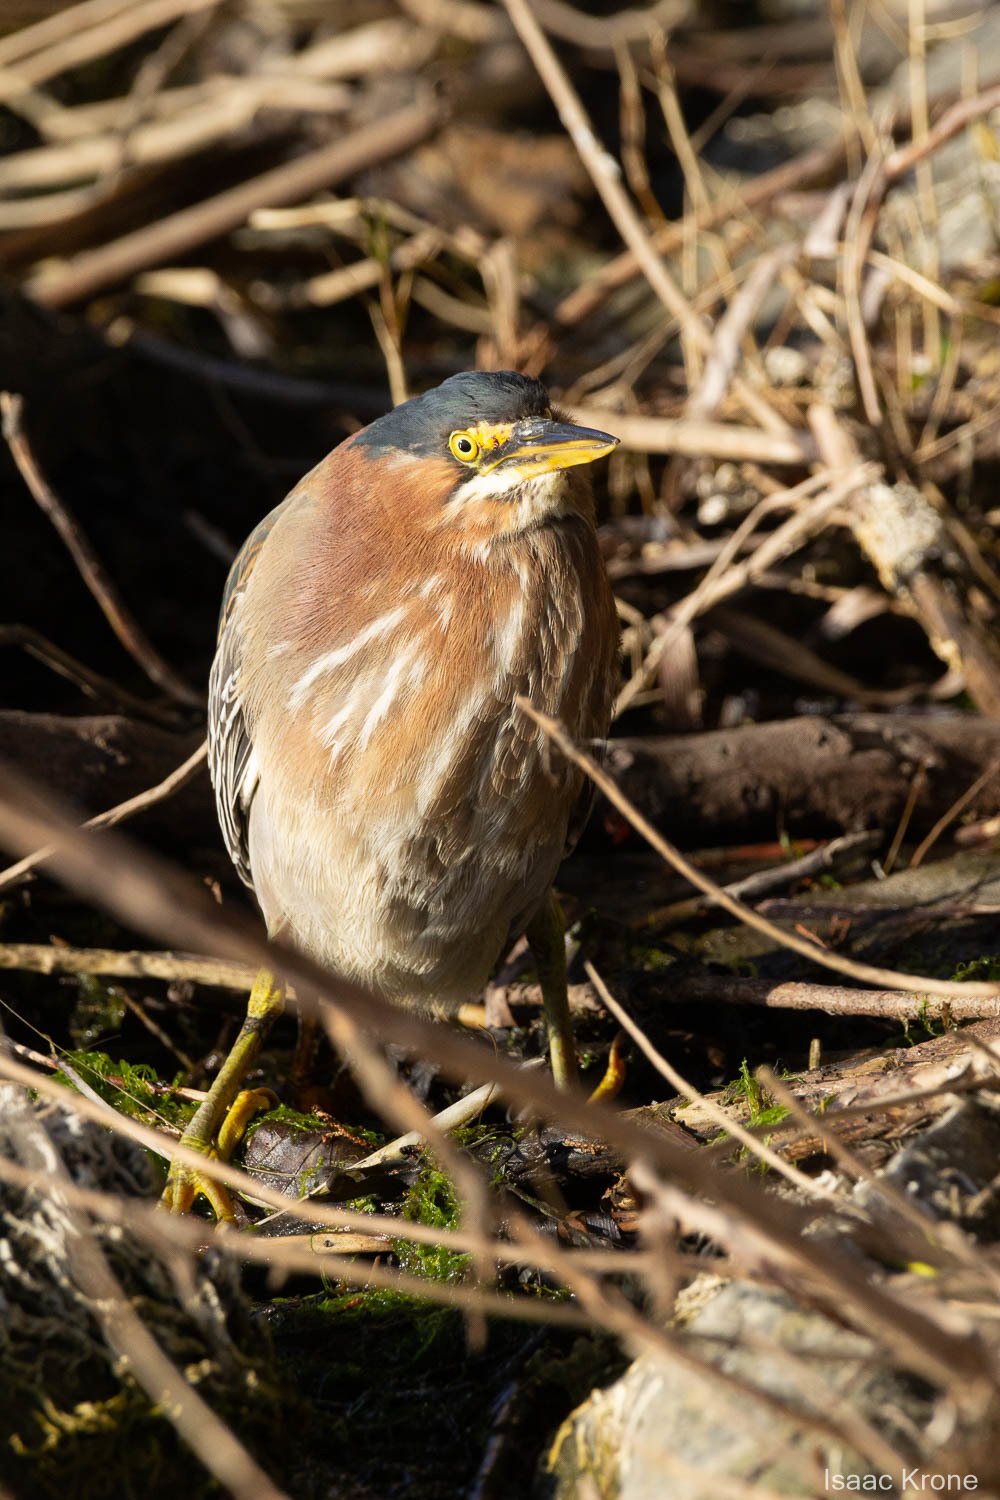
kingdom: Animalia
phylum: Chordata
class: Aves
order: Pelecaniformes
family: Ardeidae
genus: Butorides
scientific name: Butorides virescens
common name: Green heron
